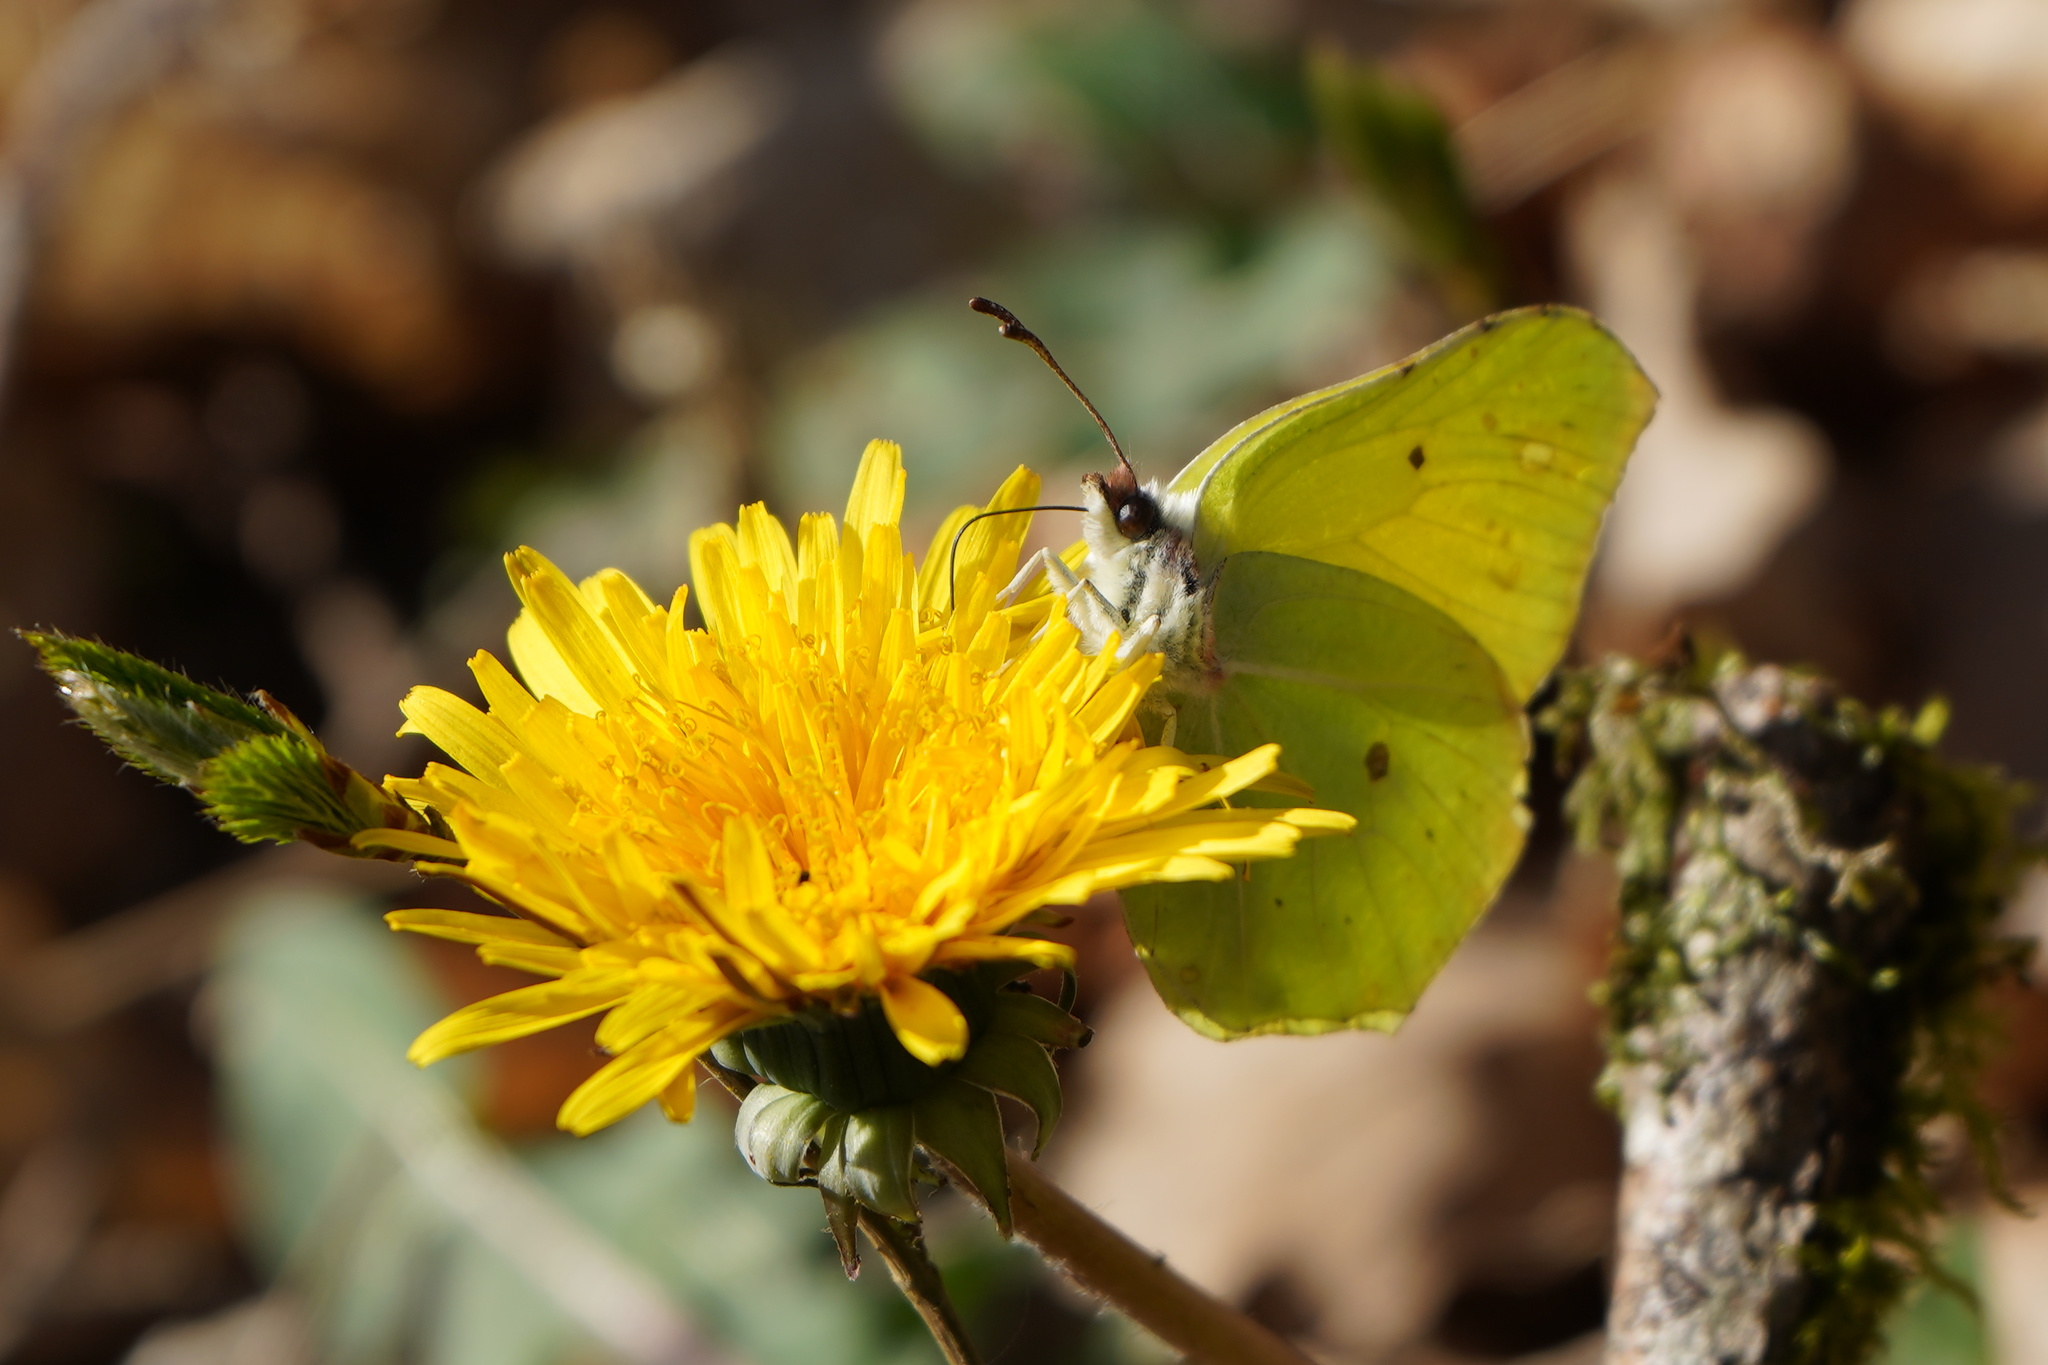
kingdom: Animalia
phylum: Arthropoda
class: Insecta
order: Lepidoptera
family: Pieridae
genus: Gonepteryx
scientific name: Gonepteryx rhamni
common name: Brimstone
